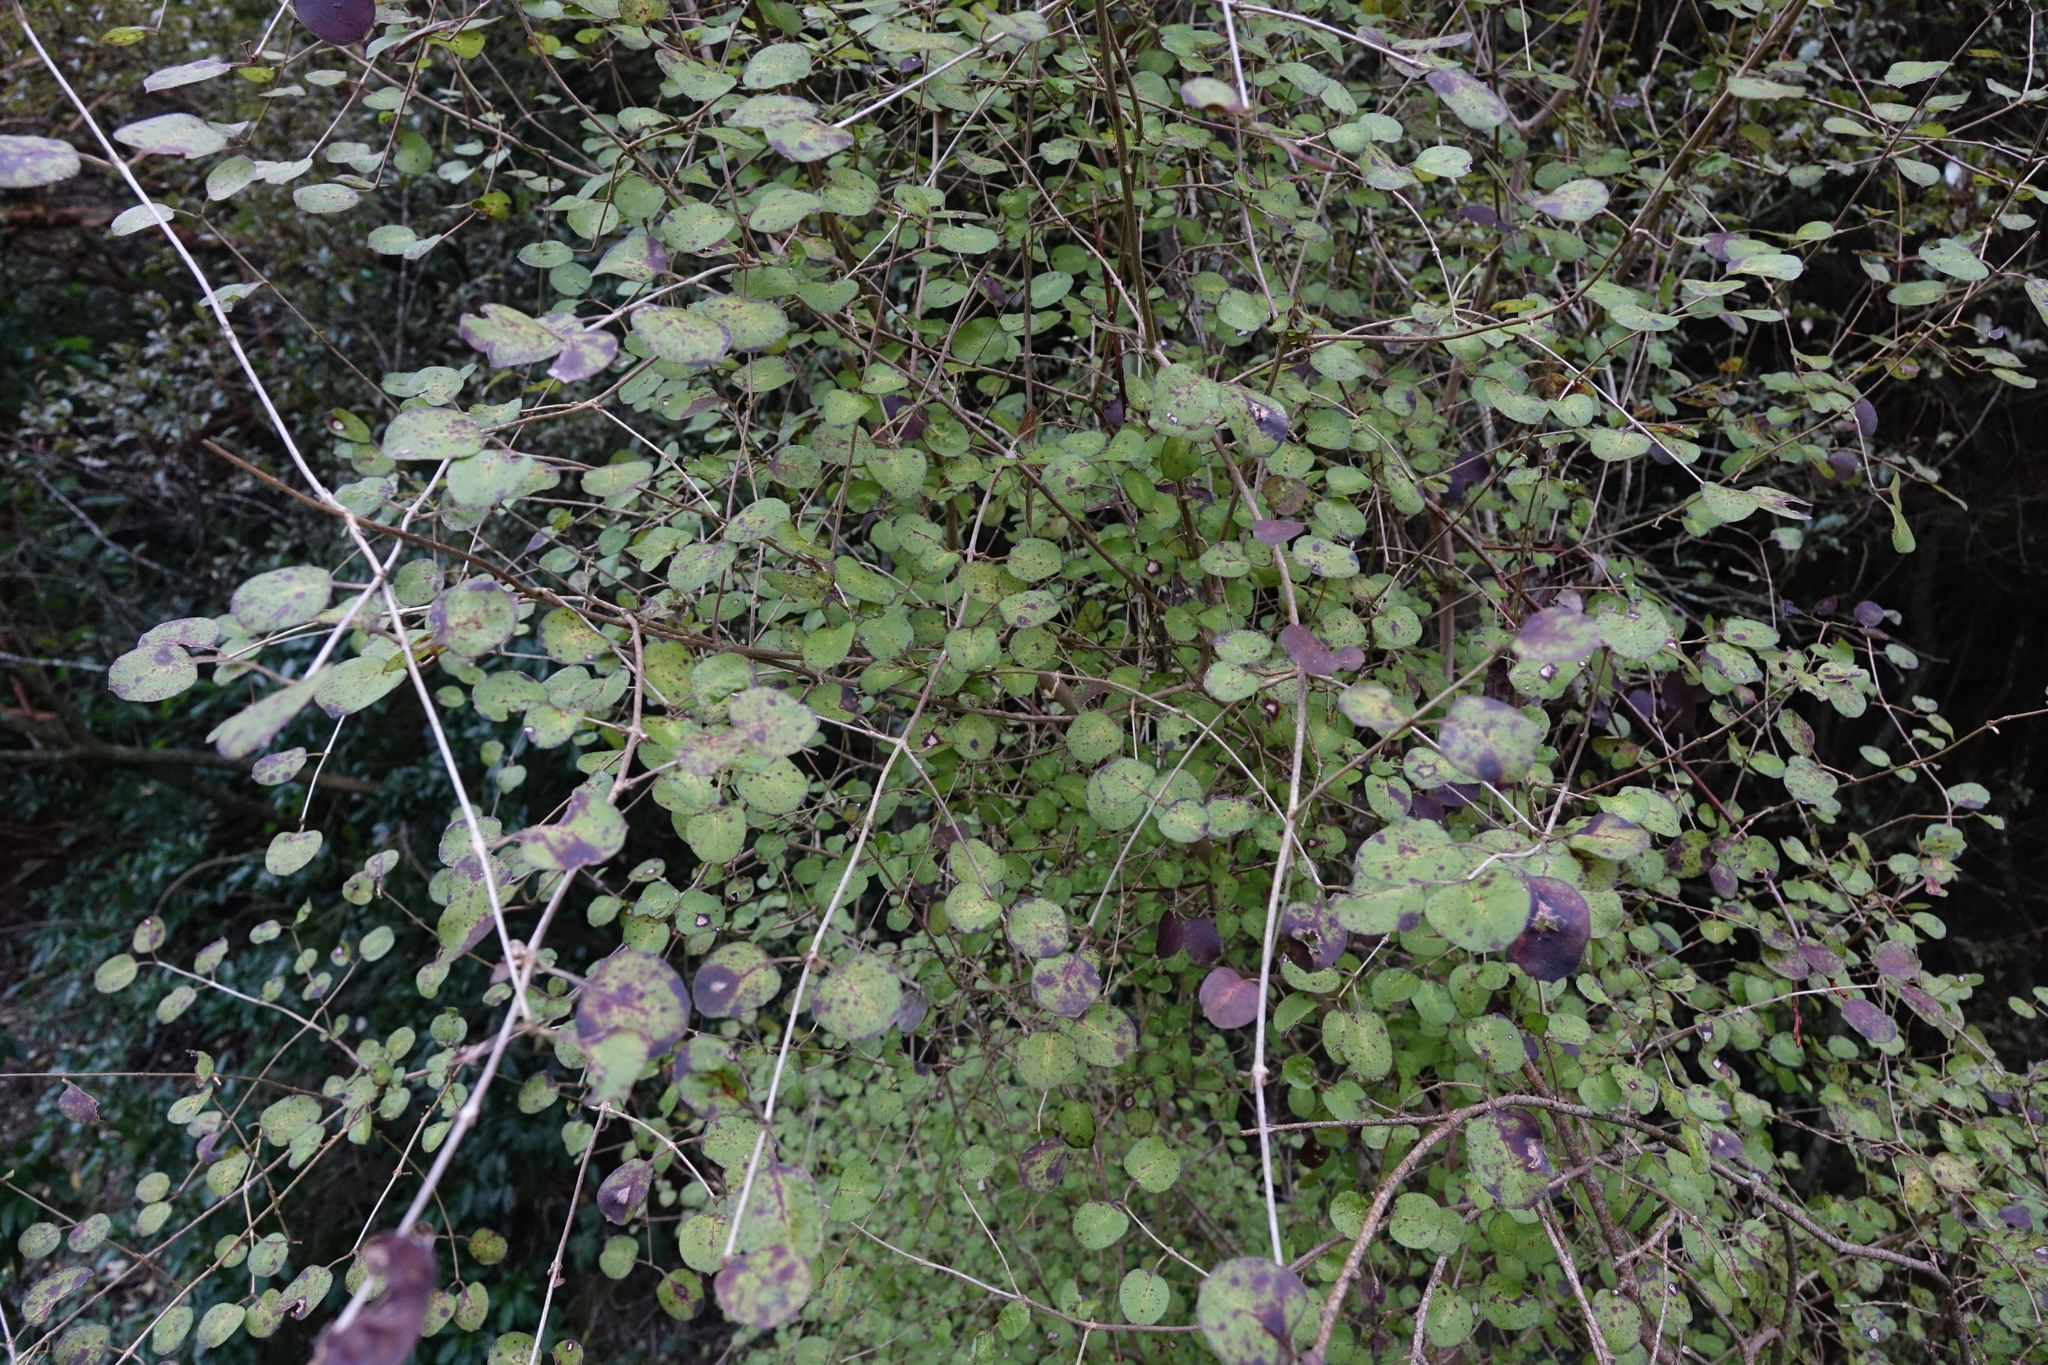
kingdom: Plantae
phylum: Tracheophyta
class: Magnoliopsida
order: Gentianales
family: Rubiaceae
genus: Coprosma
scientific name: Coprosma rotundifolia
